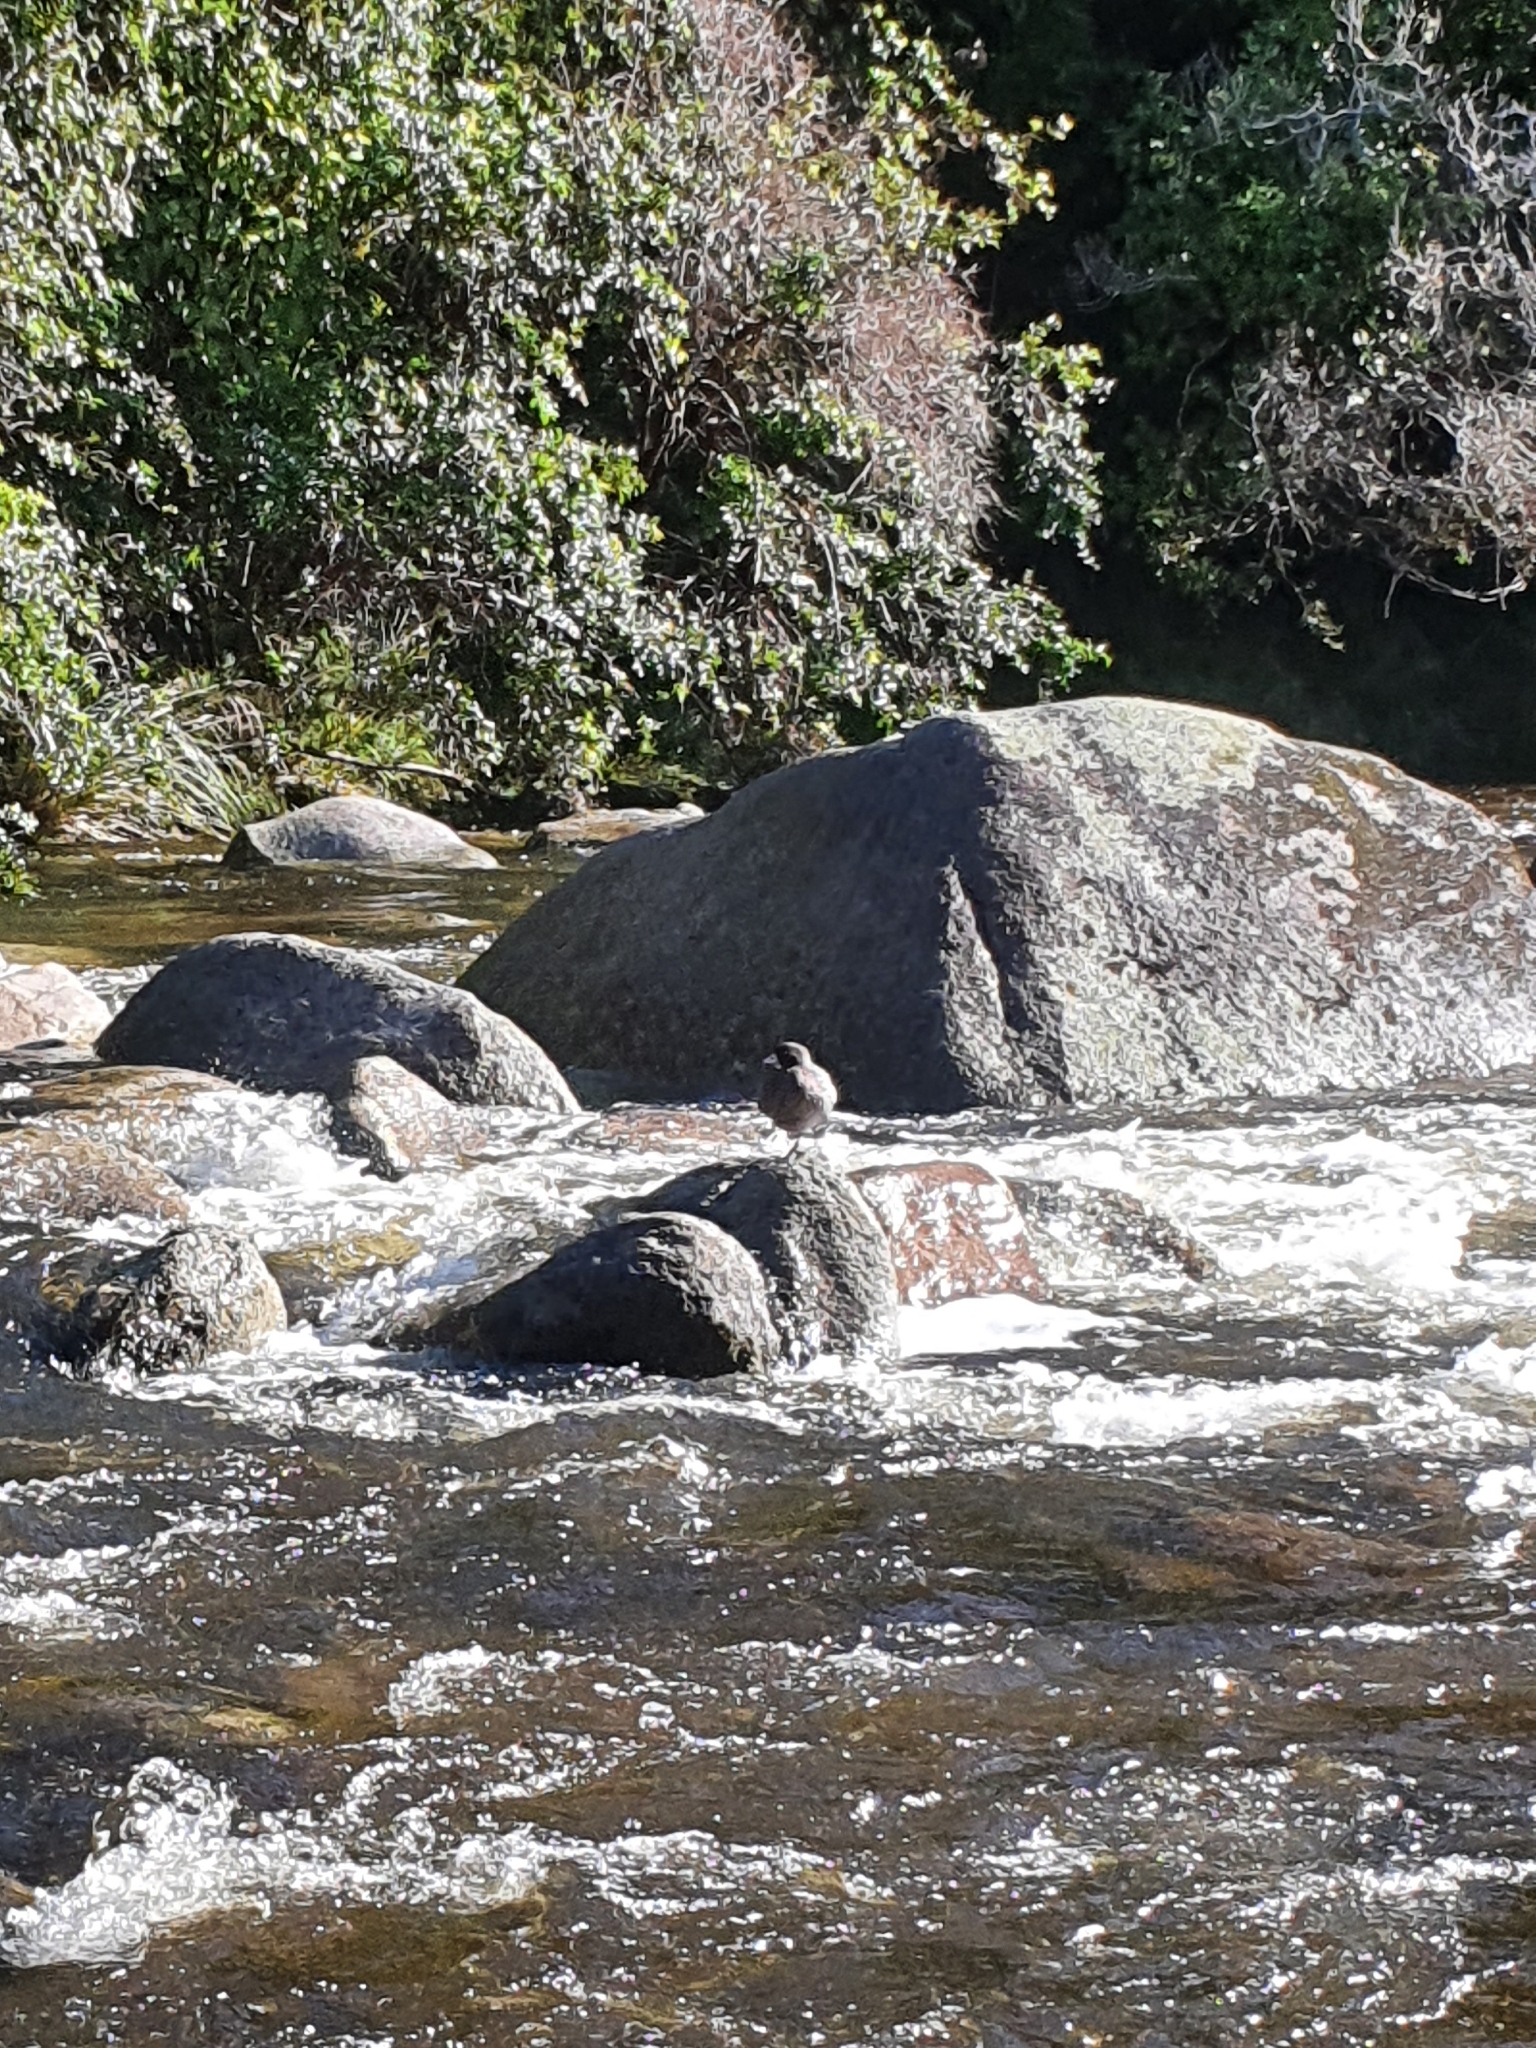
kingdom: Animalia
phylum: Chordata
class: Aves
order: Anseriformes
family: Anatidae
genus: Hymenolaimus
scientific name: Hymenolaimus malacorhynchos
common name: Blue duck
